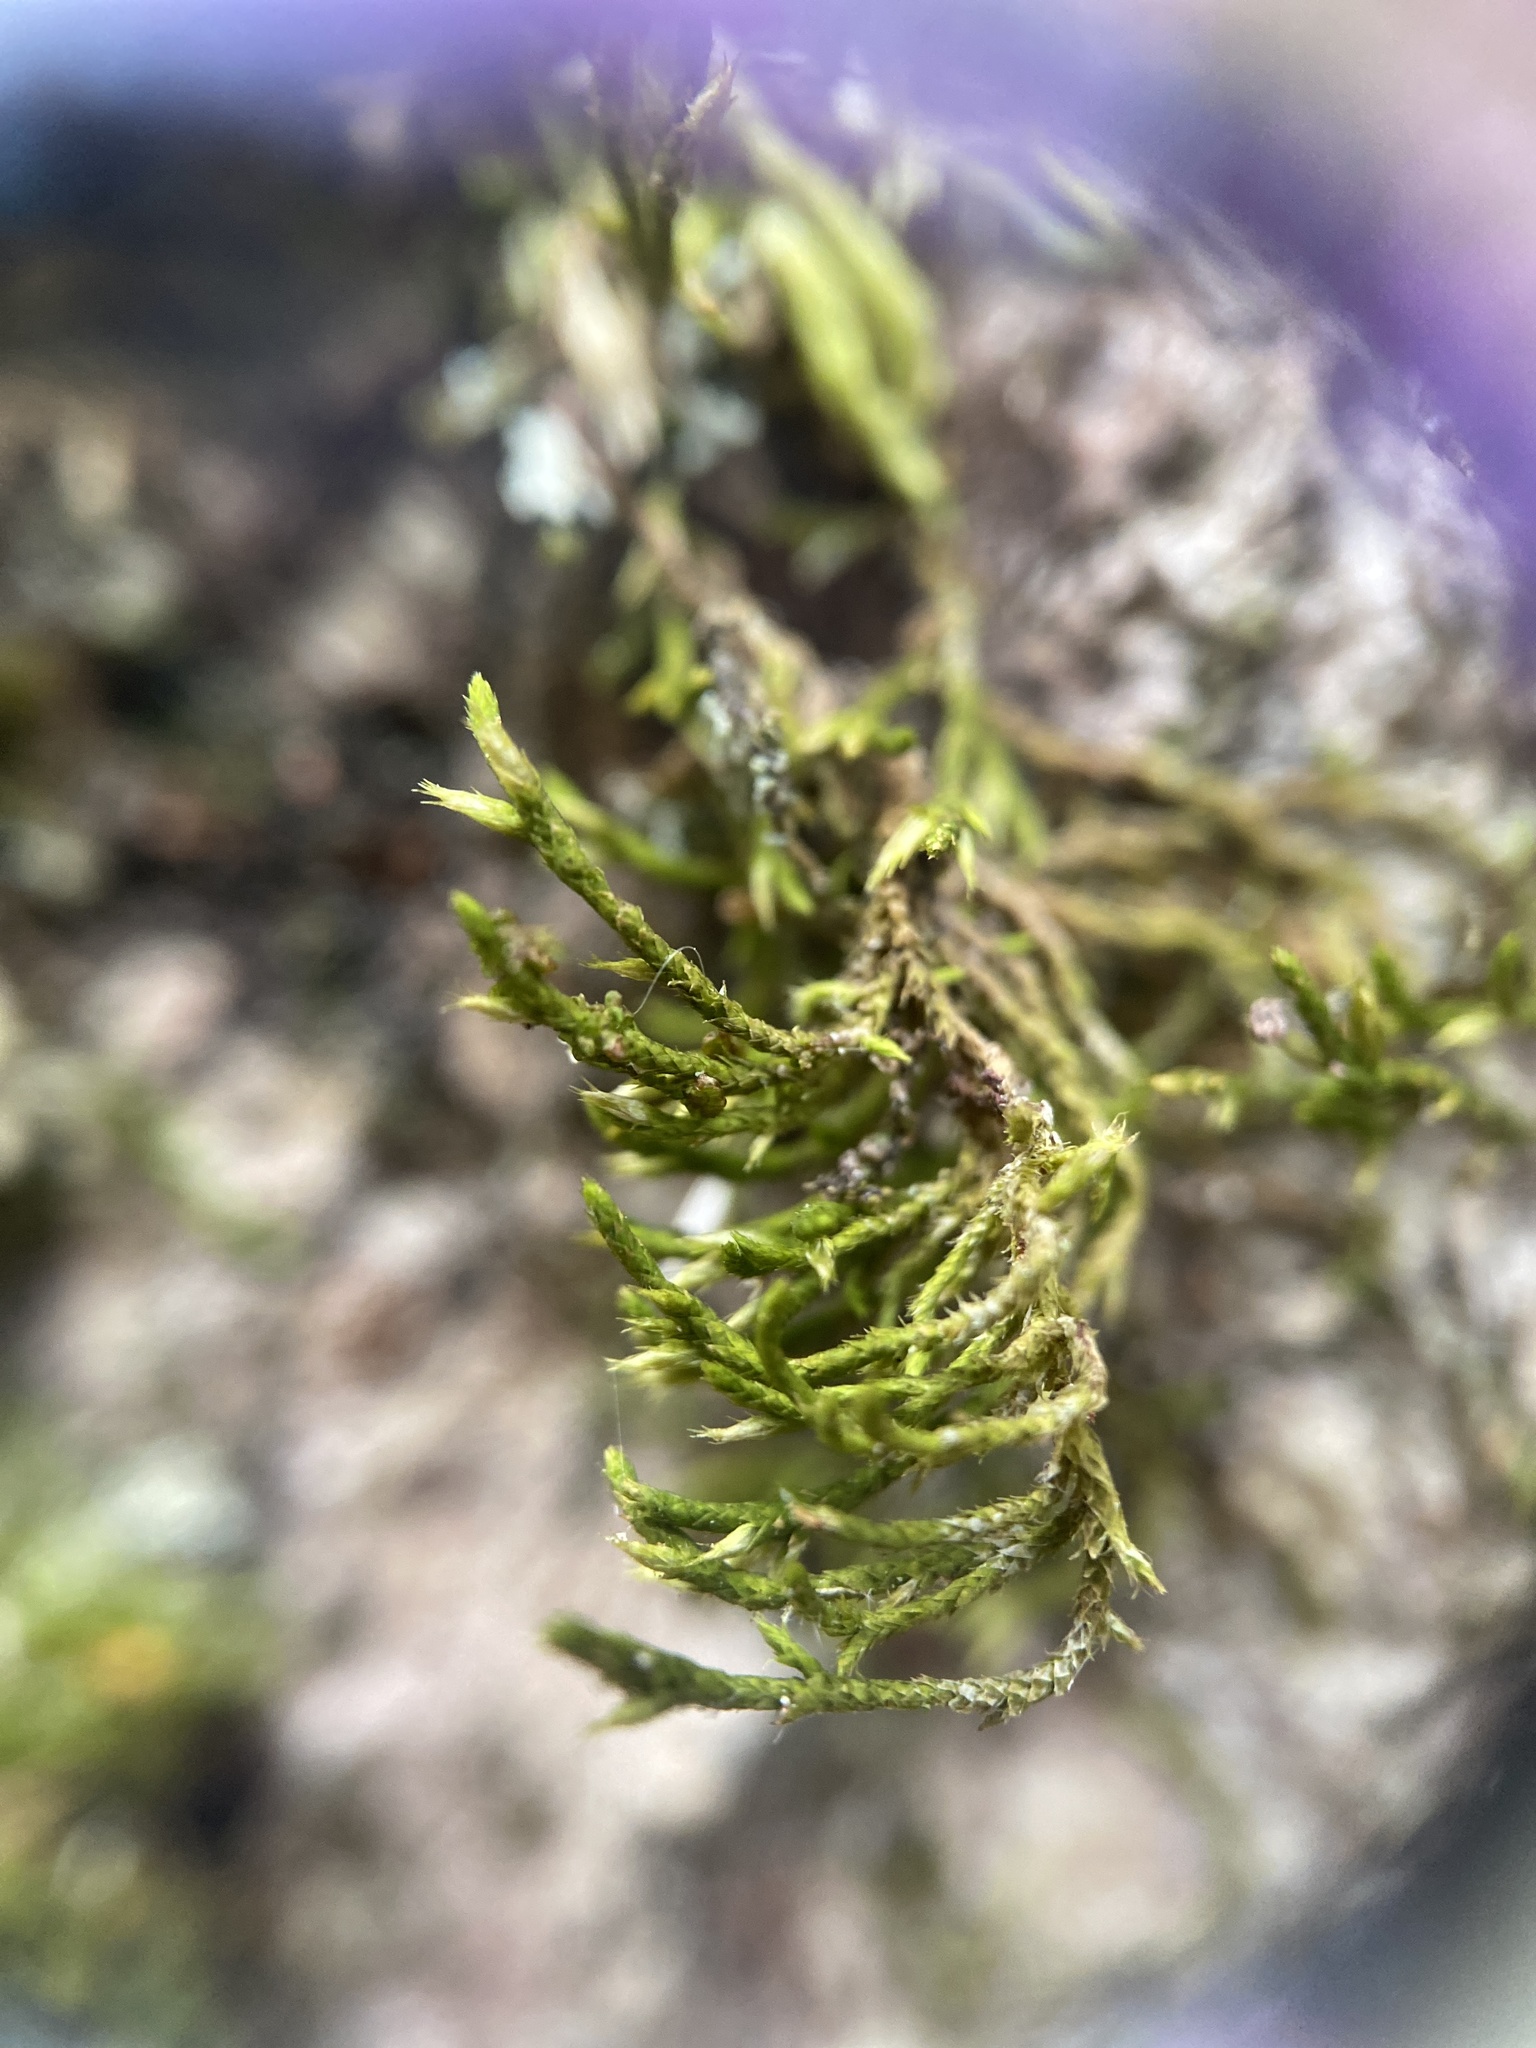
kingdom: Plantae
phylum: Bryophyta
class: Bryopsida
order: Hypnales
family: Cryphaeaceae
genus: Cryphaea
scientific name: Cryphaea glomerata
